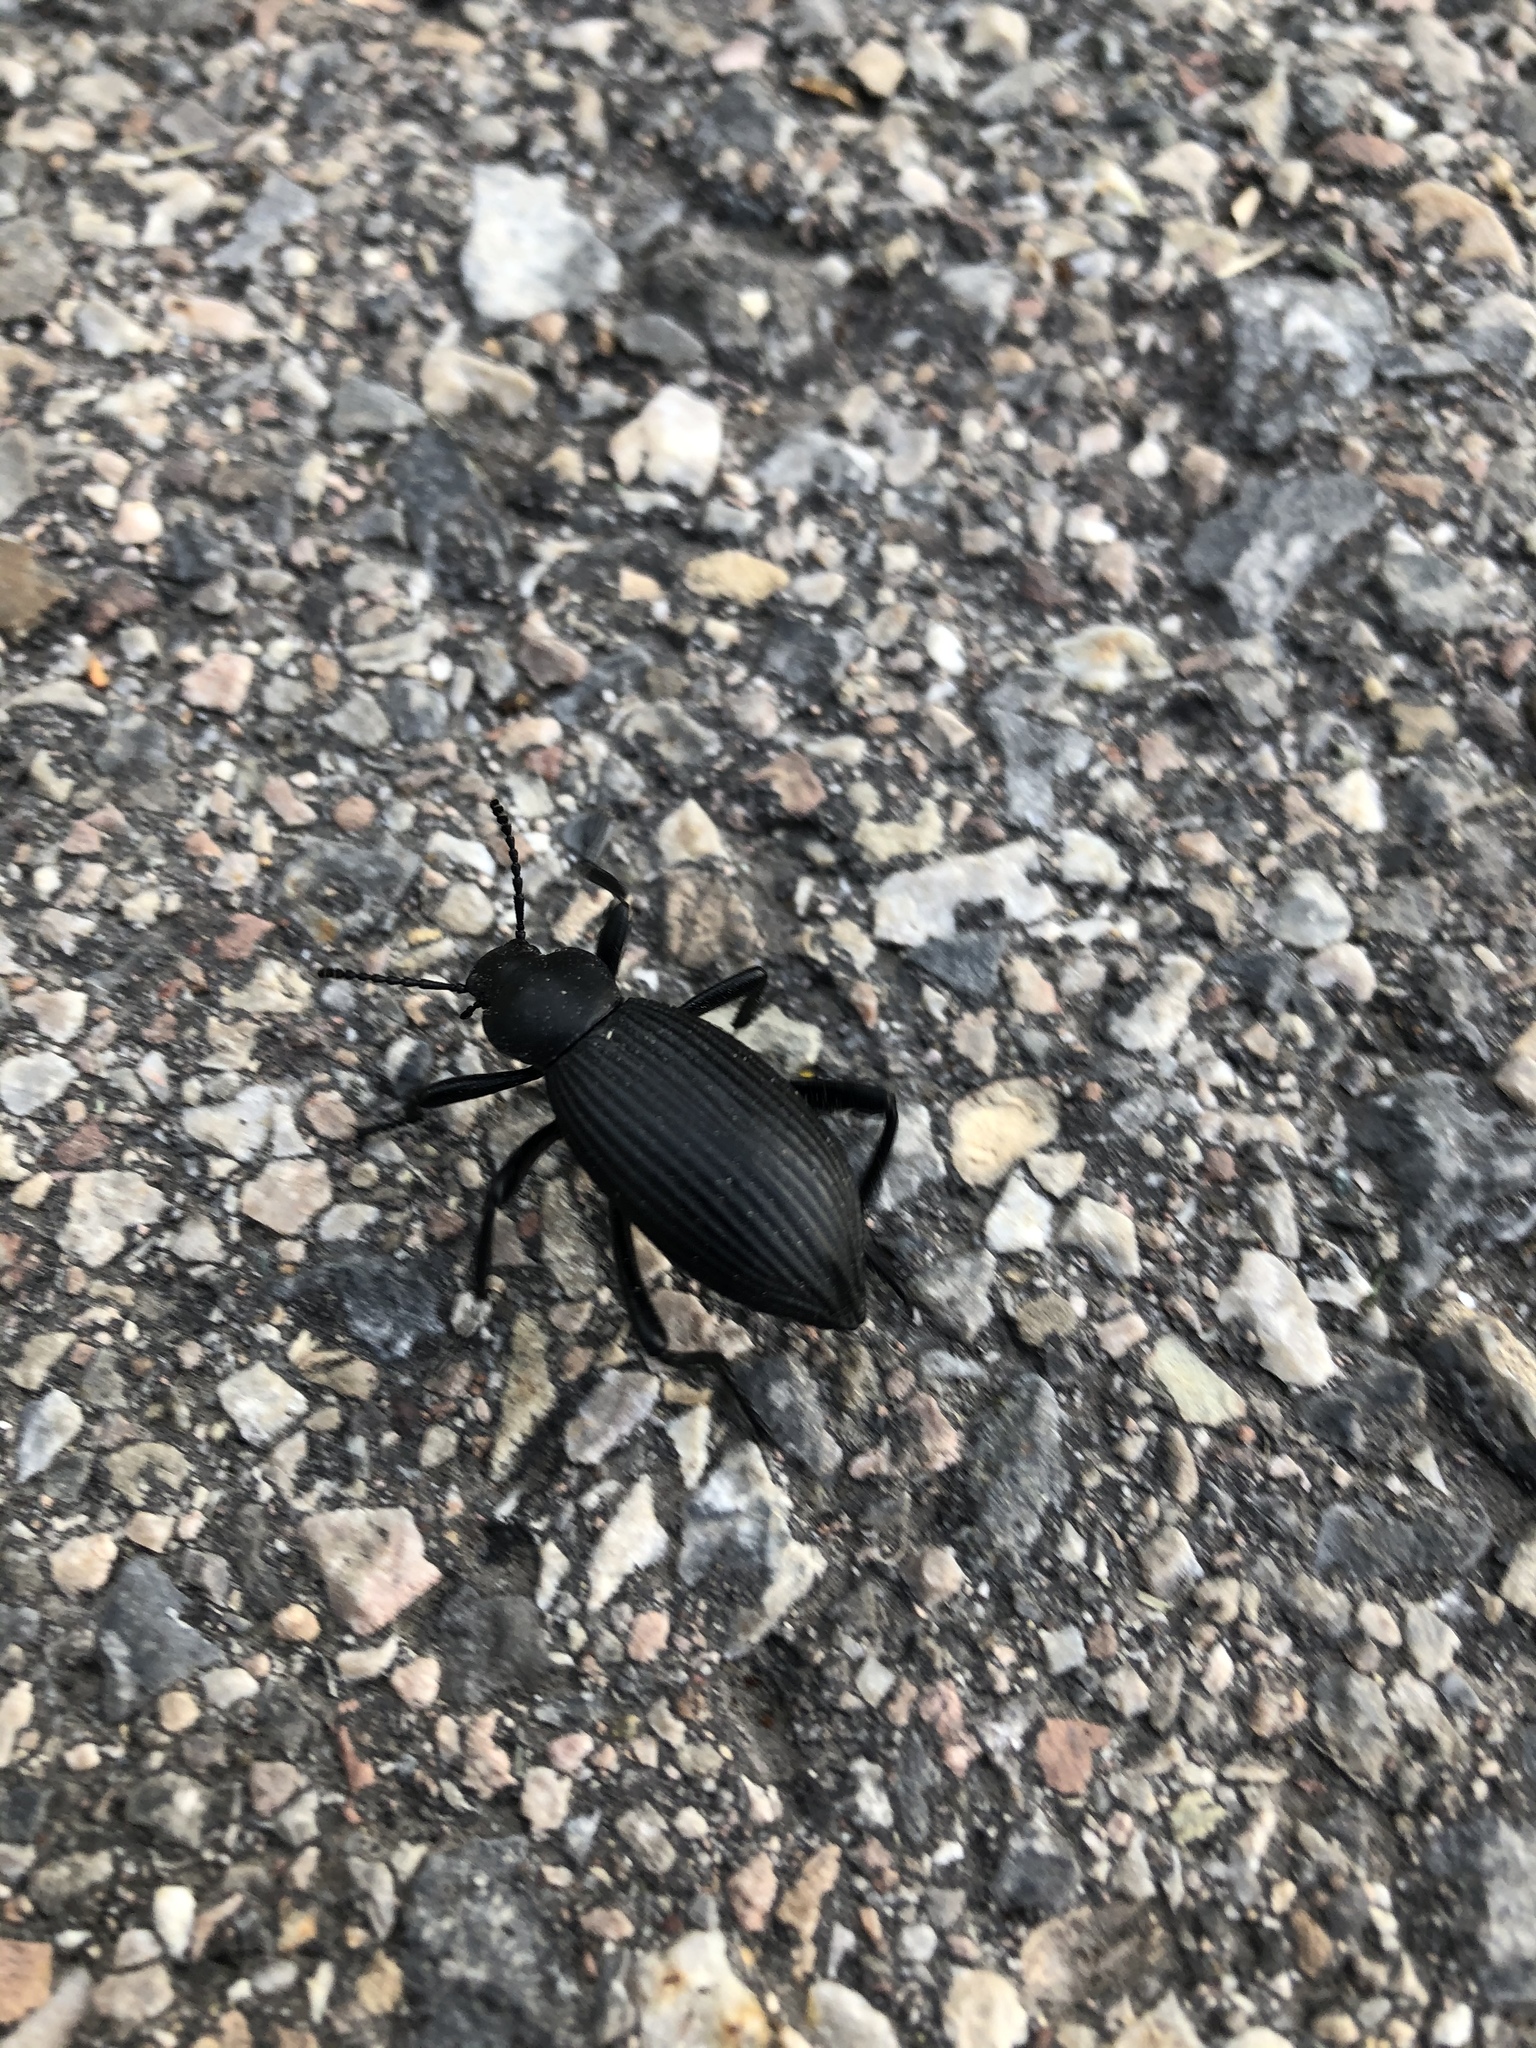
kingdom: Animalia
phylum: Arthropoda
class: Insecta
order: Coleoptera
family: Tenebrionidae
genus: Eleodes
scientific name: Eleodes hispilabris
